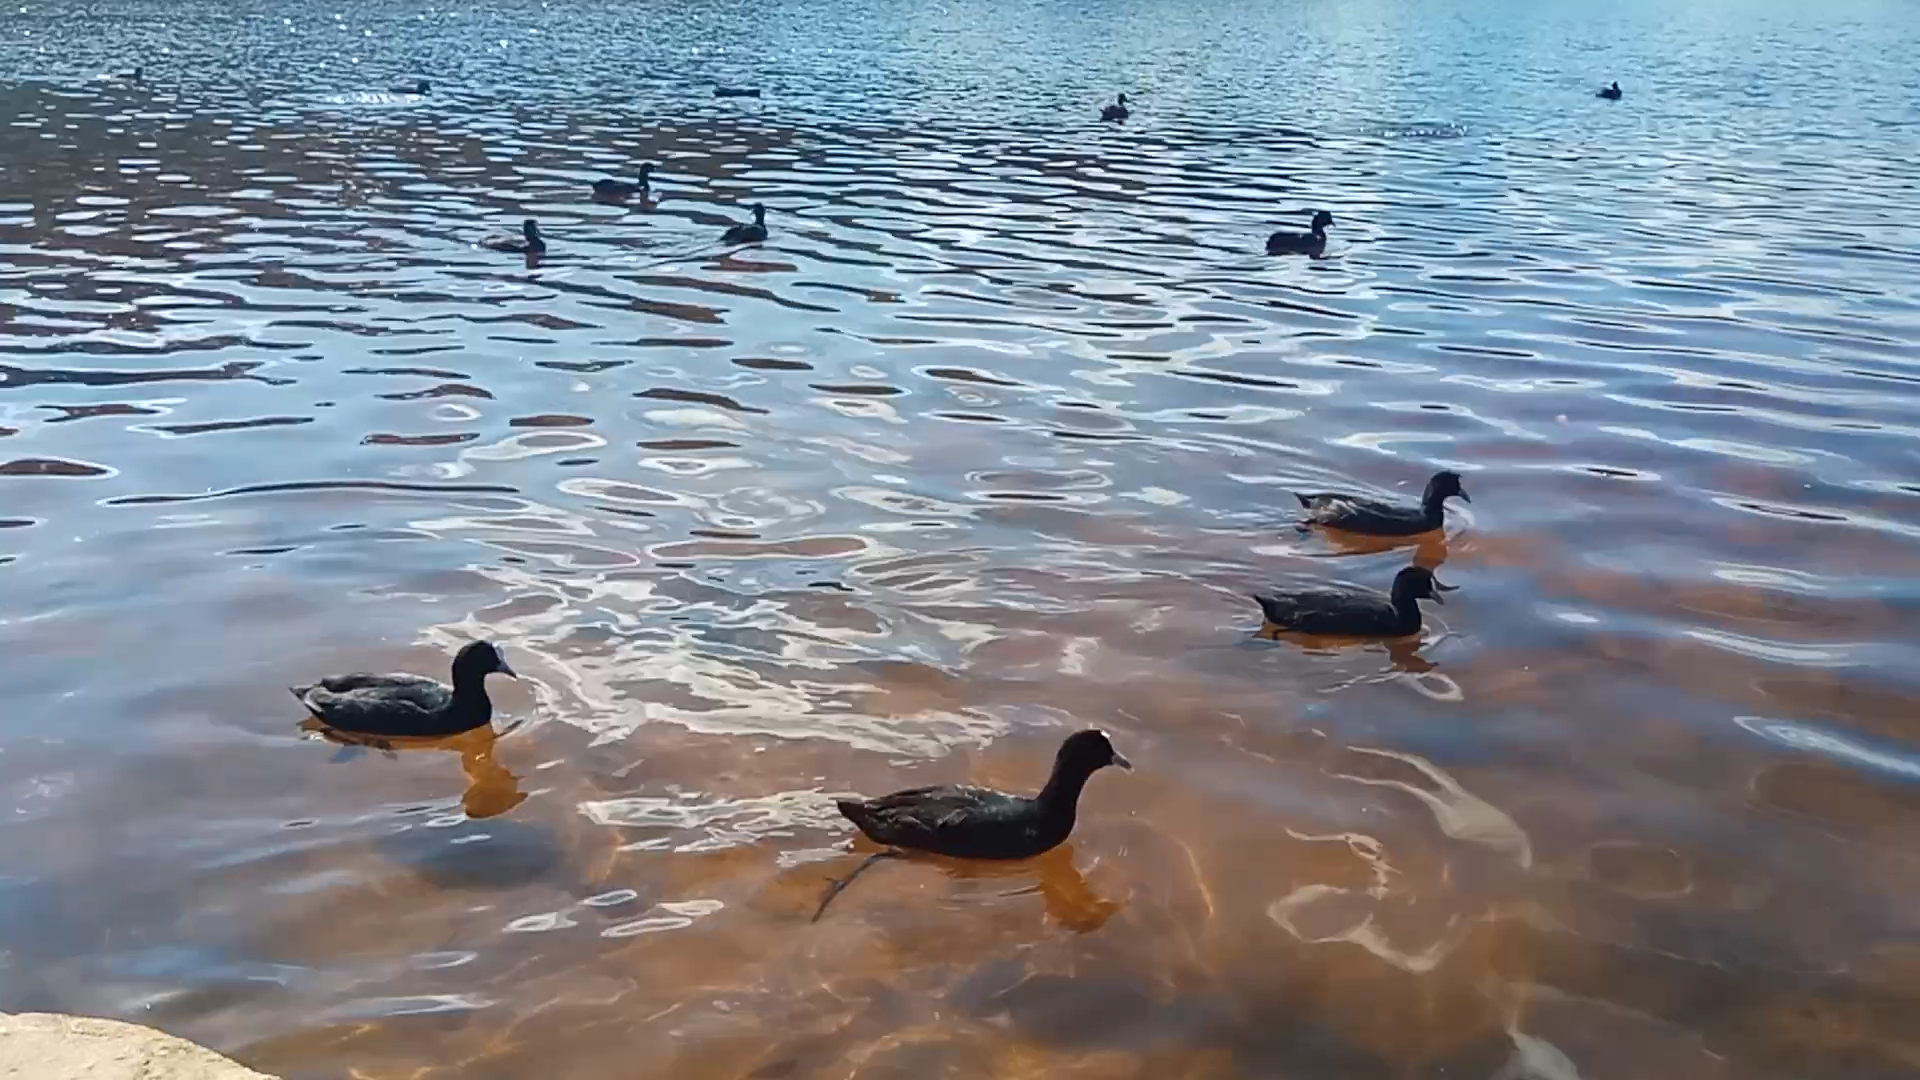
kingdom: Animalia
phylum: Chordata
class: Aves
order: Gruiformes
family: Rallidae
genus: Fulica
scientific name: Fulica atra
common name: Eurasian coot
